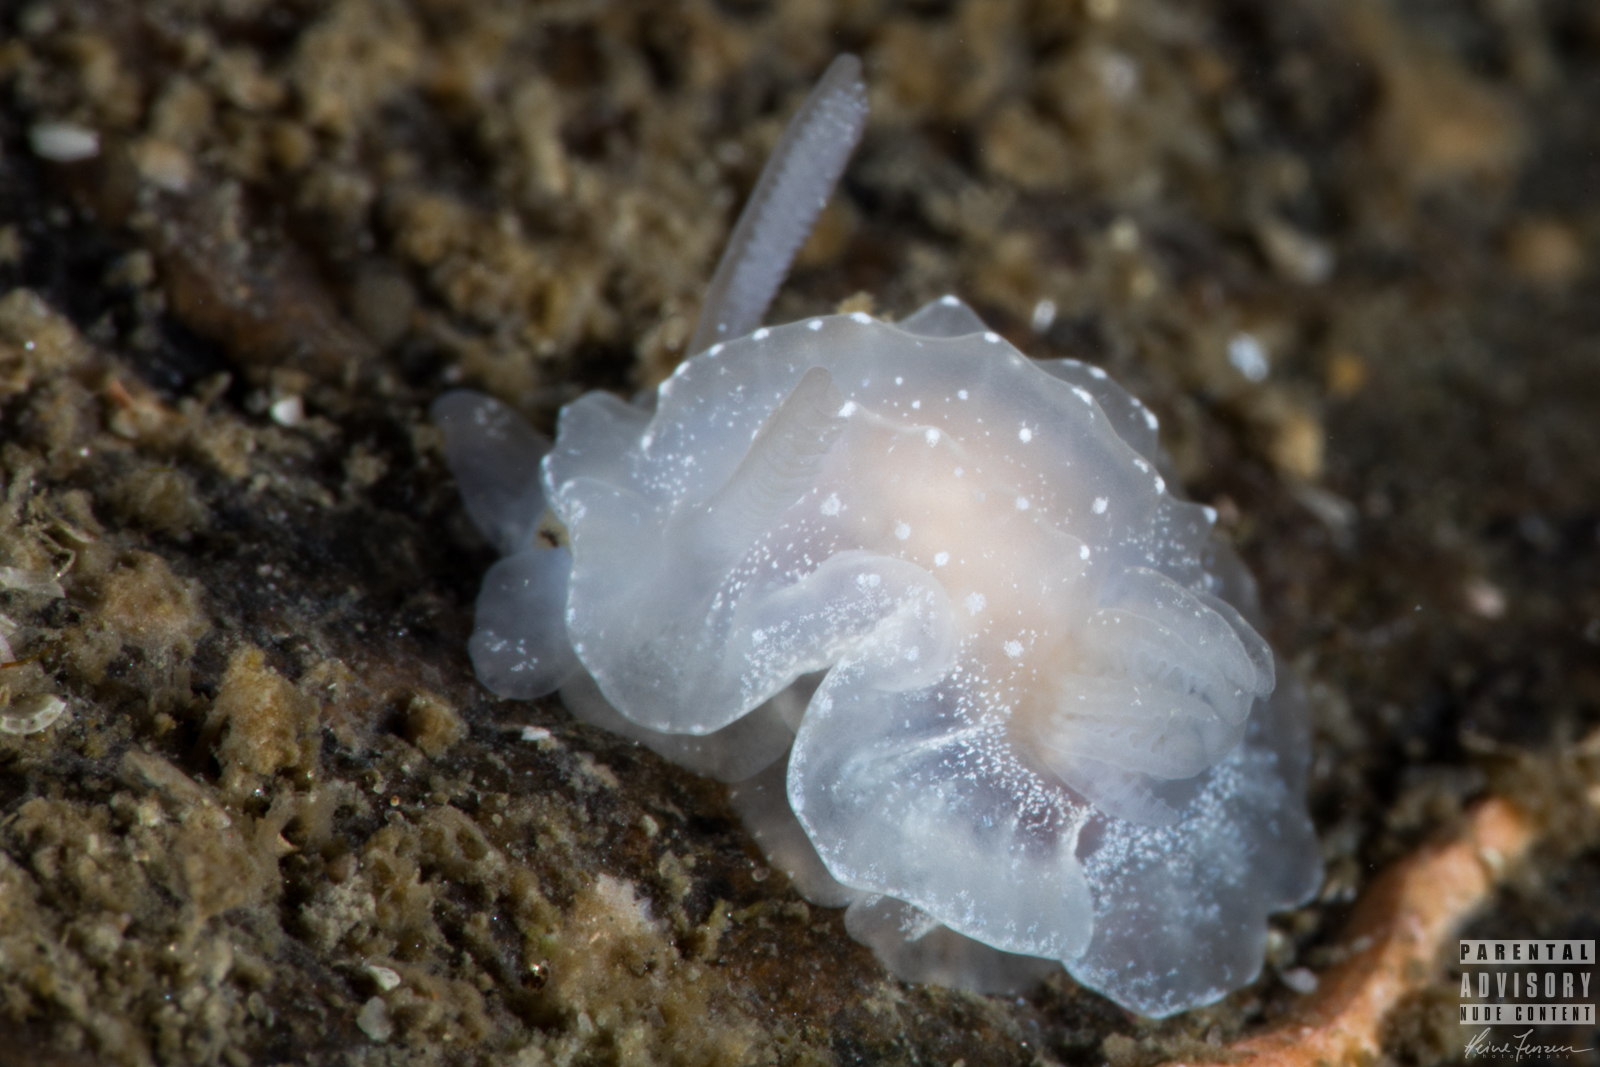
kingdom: Animalia
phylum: Mollusca
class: Gastropoda
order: Nudibranchia
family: Goniodorididae
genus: Okenia
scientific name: Okenia
